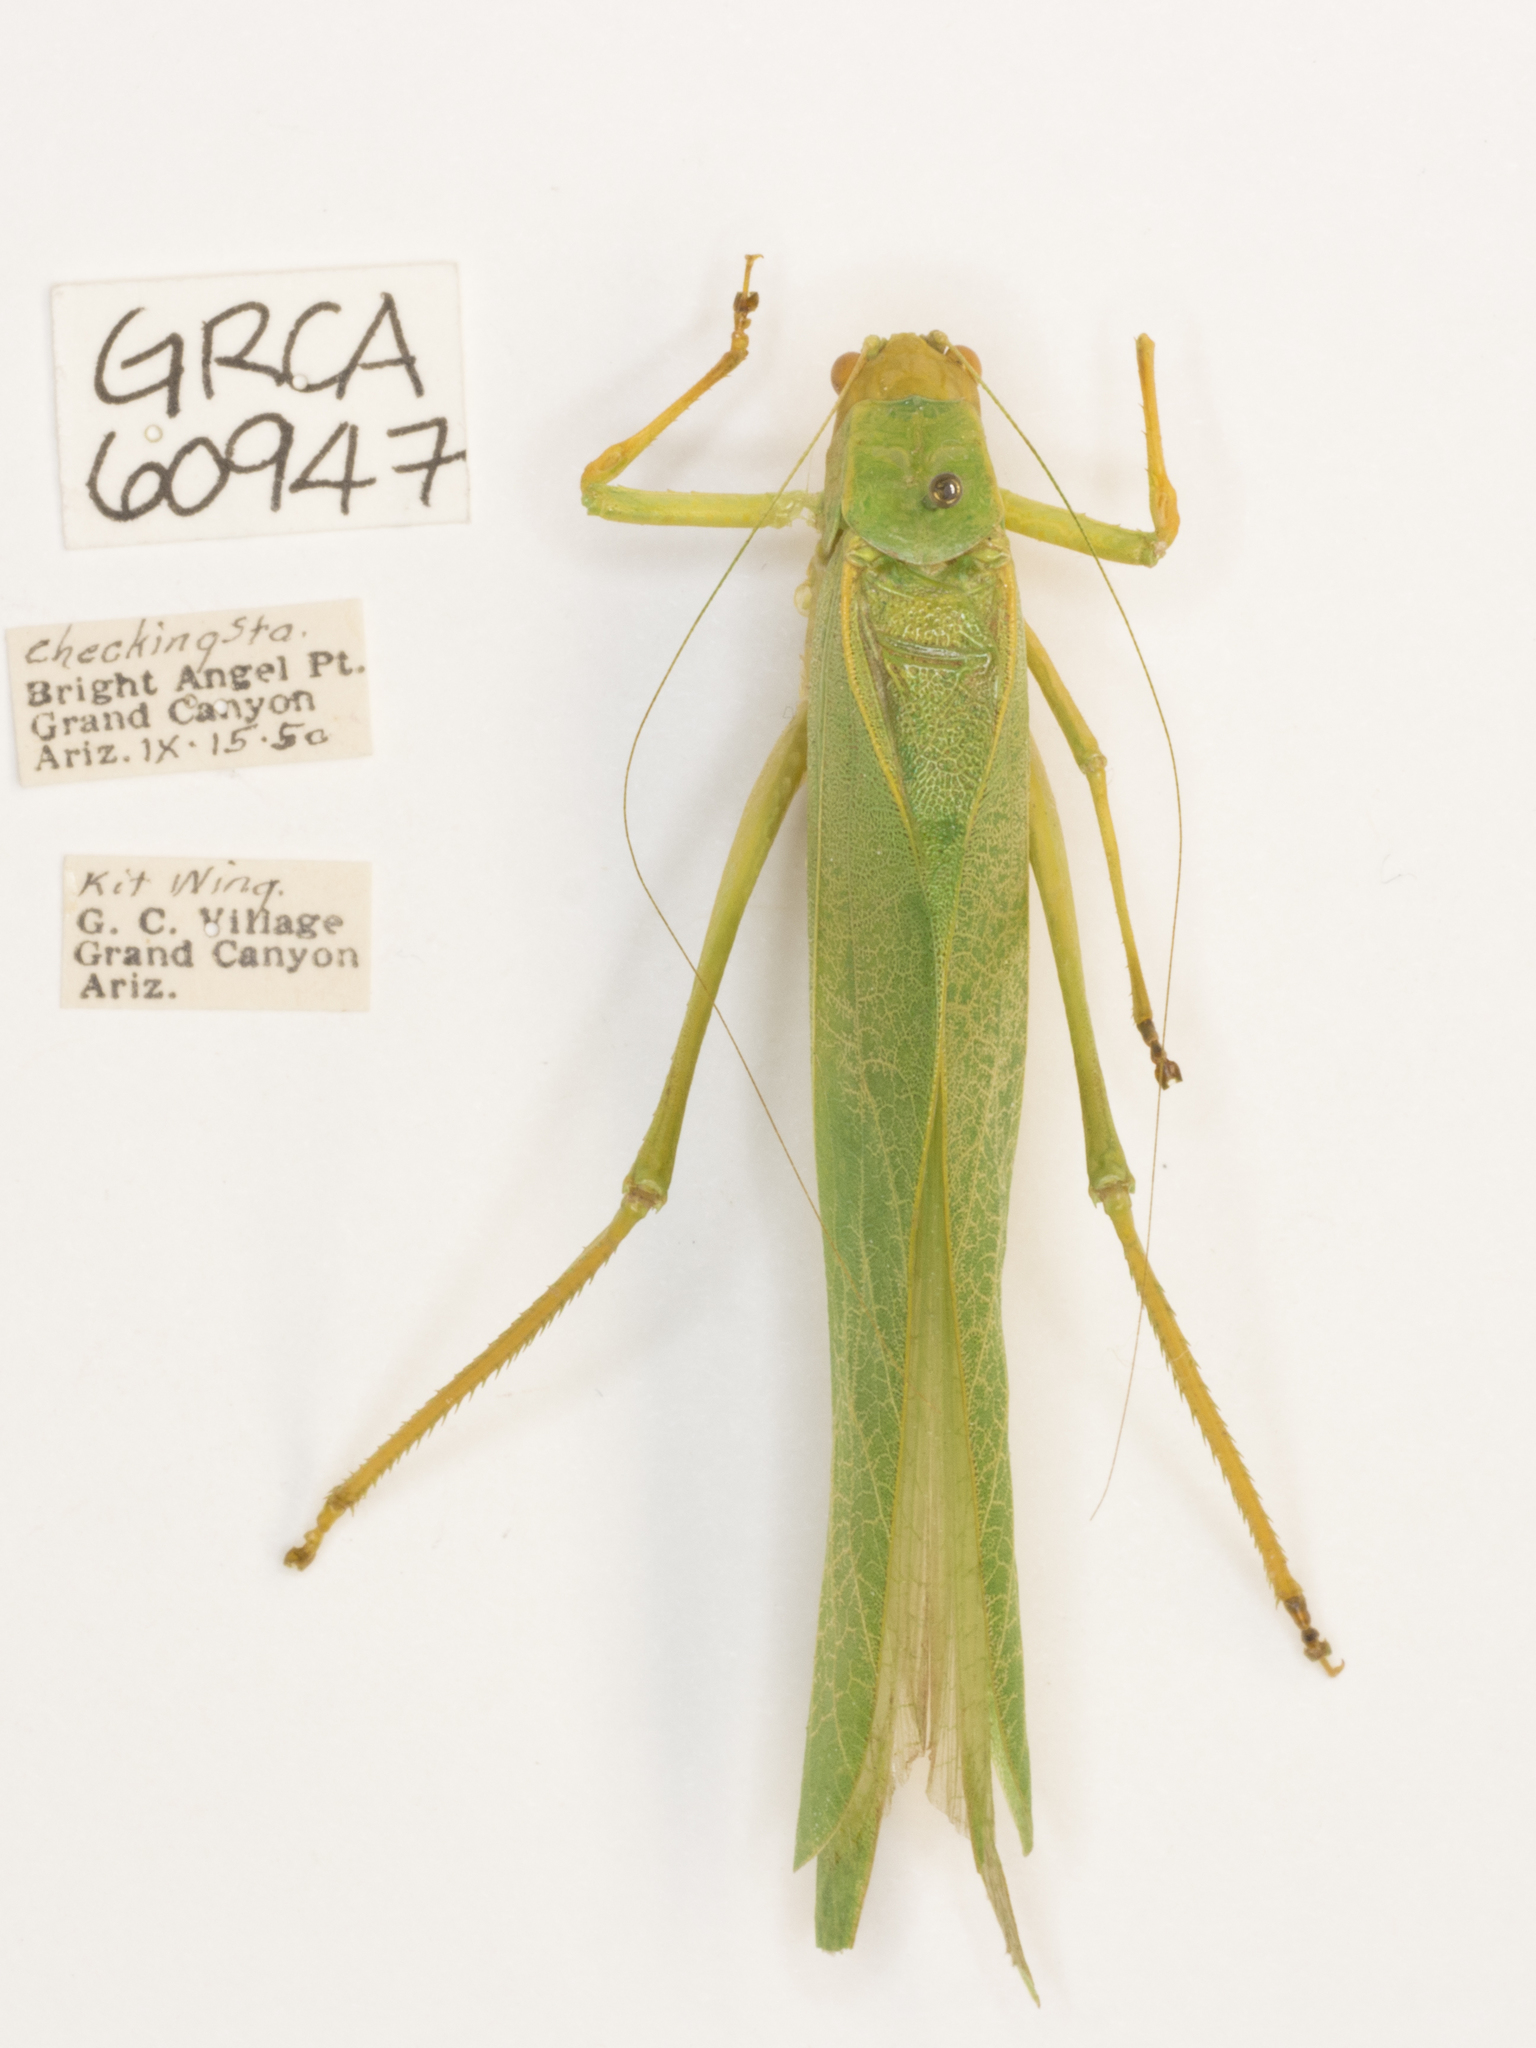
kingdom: Animalia
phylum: Arthropoda
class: Insecta
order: Orthoptera
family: Tettigoniidae
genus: Microcentrum
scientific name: Microcentrum rhombifolium
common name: Broad-winged katydid
